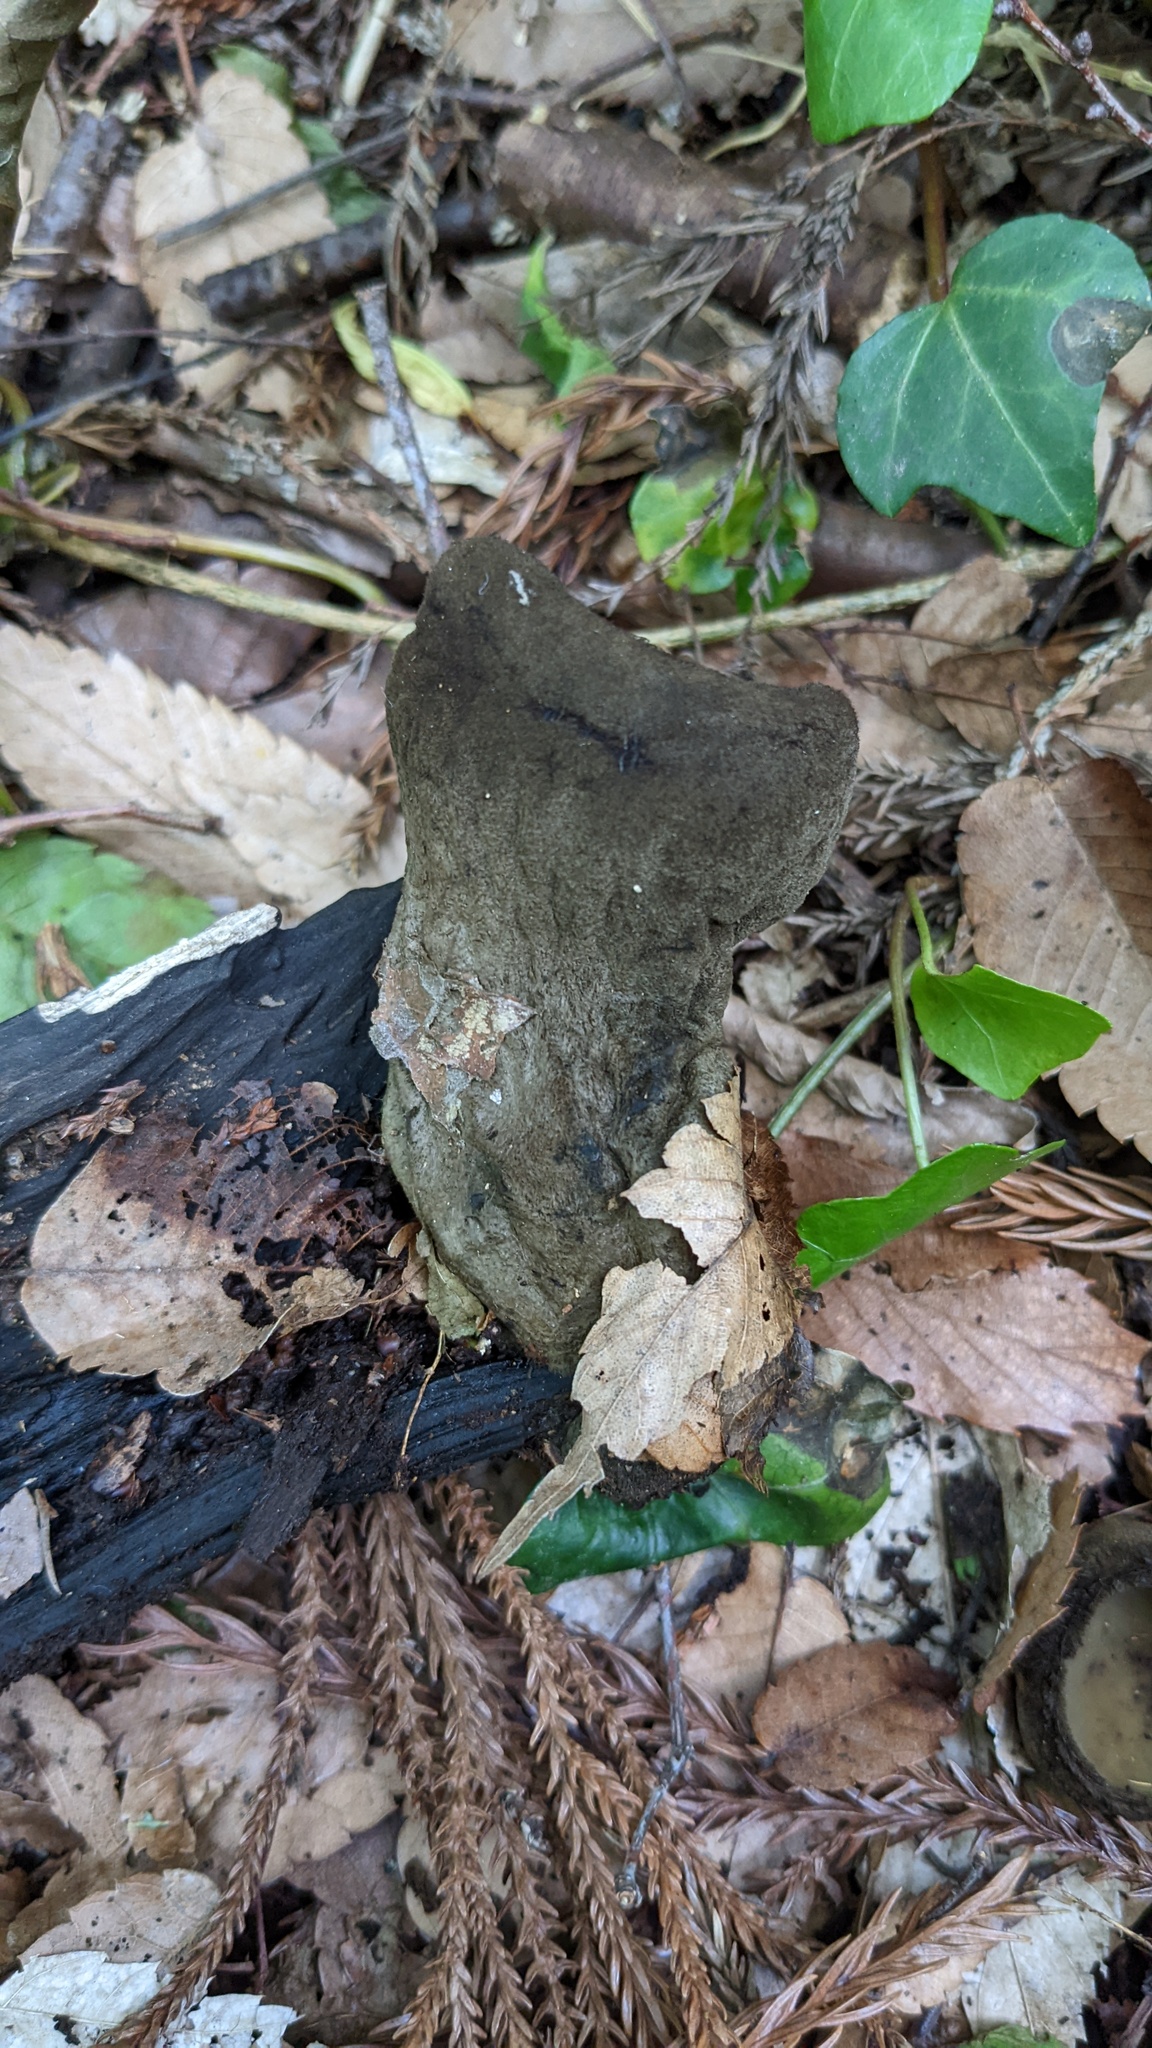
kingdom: Fungi
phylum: Ascomycota
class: Pezizomycetes
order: Pezizales
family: Pyronemataceae
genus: Trichaleurina
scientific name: Trichaleurina tenuispora
